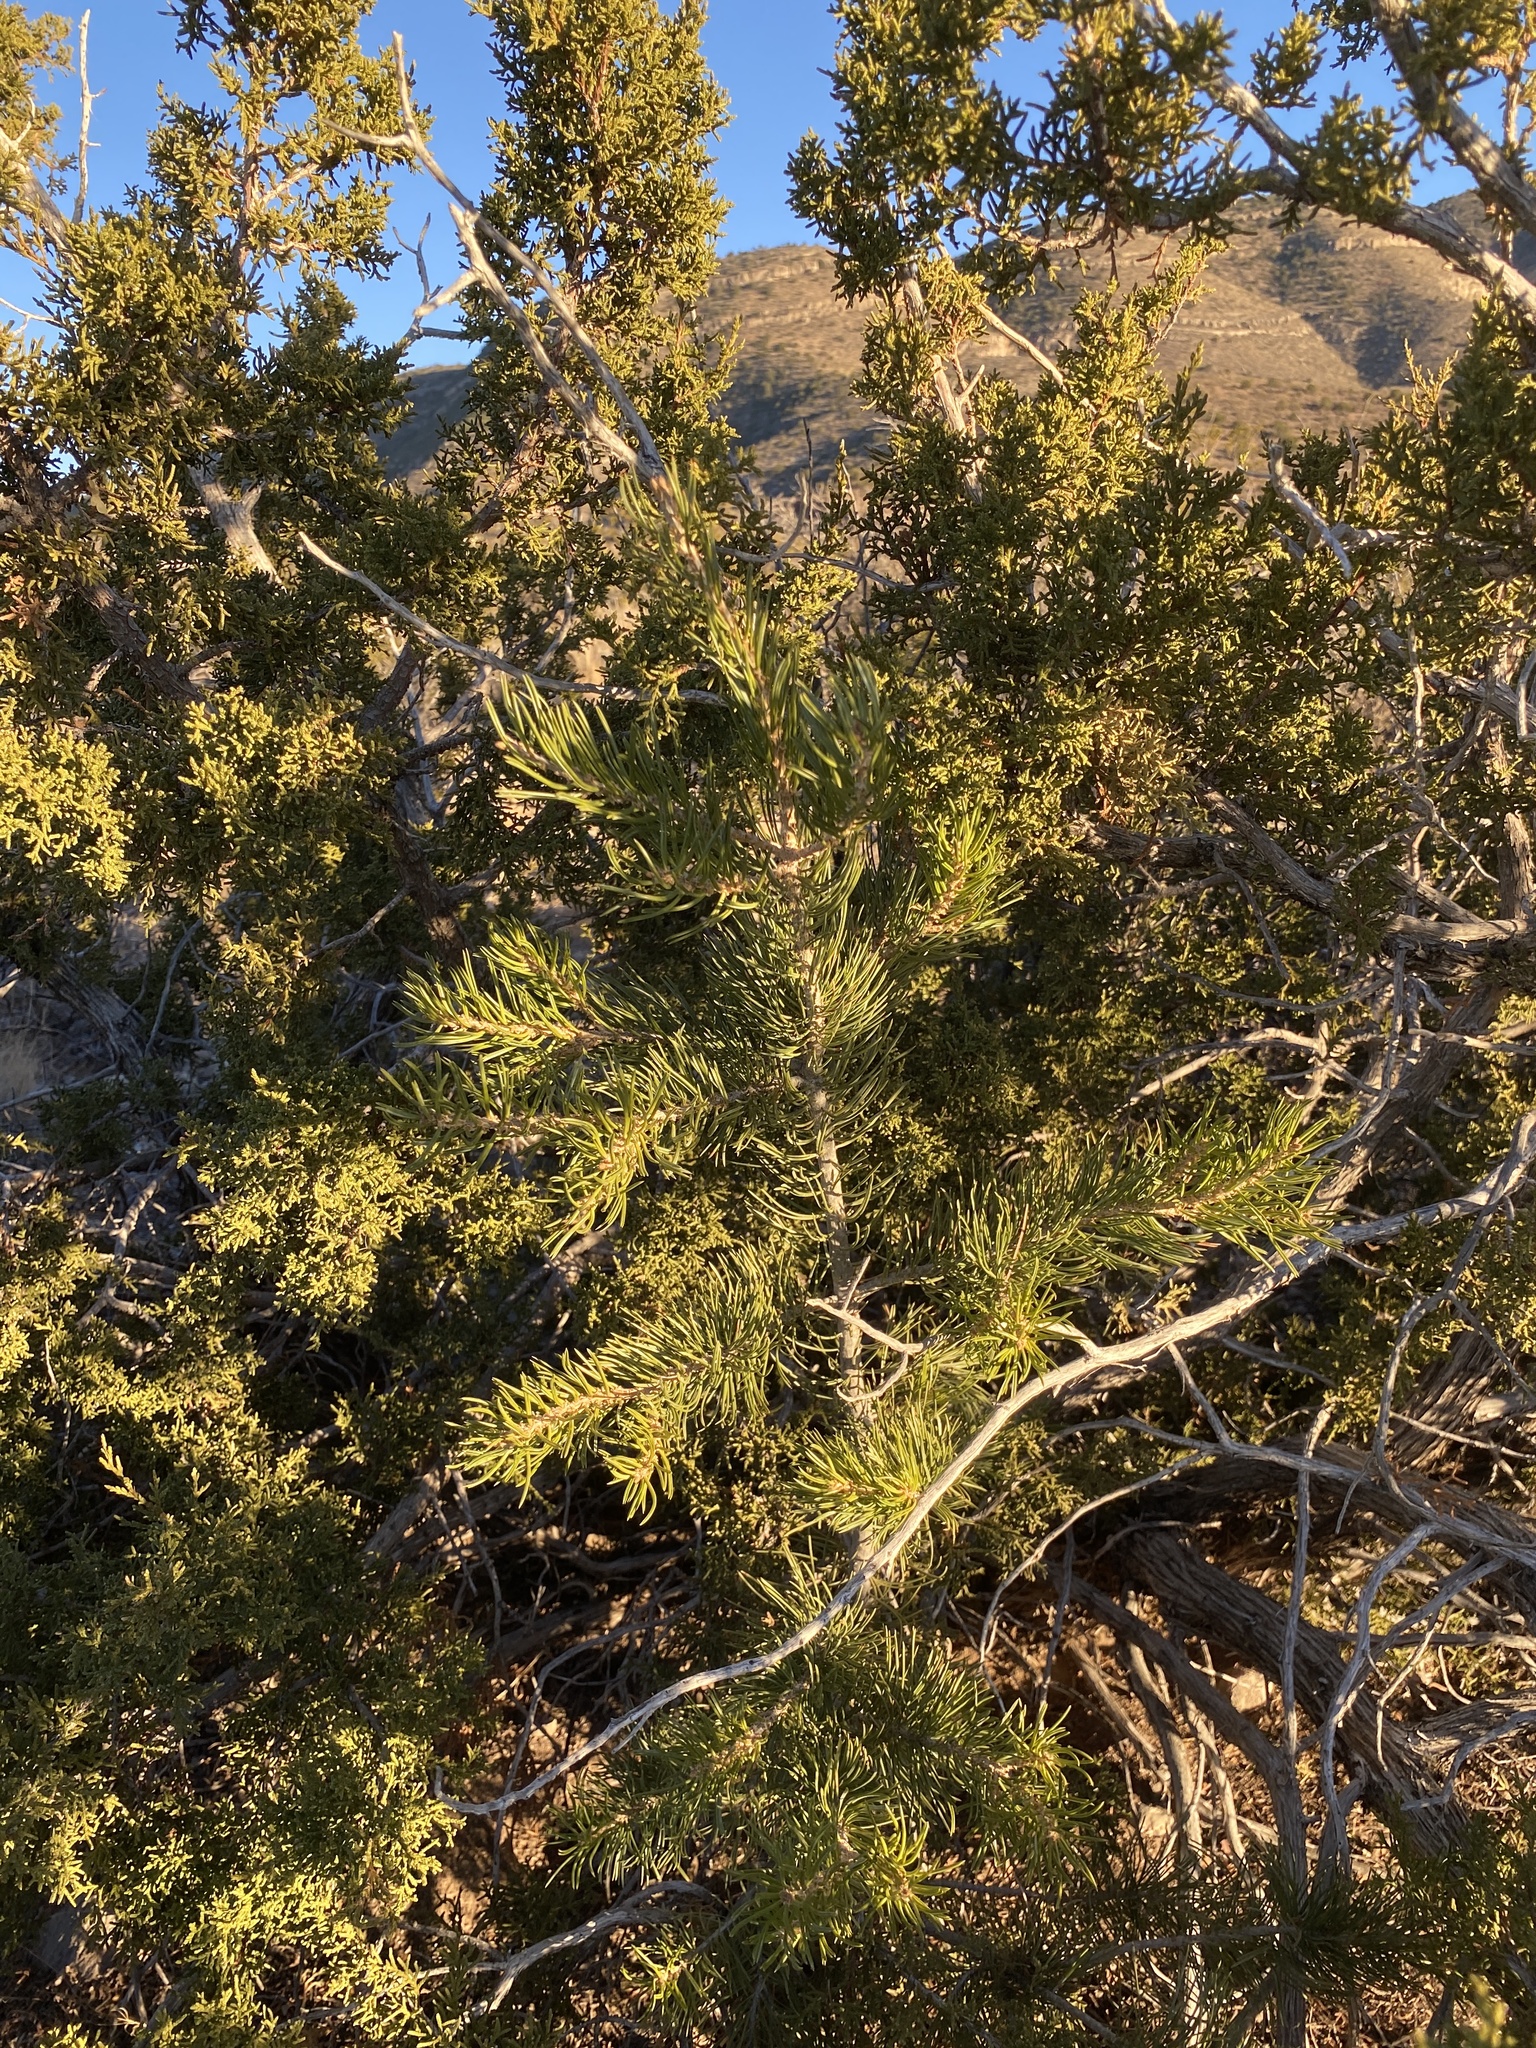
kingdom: Plantae
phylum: Tracheophyta
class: Pinopsida
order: Pinales
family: Pinaceae
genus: Pinus
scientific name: Pinus edulis
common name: Colorado pinyon
